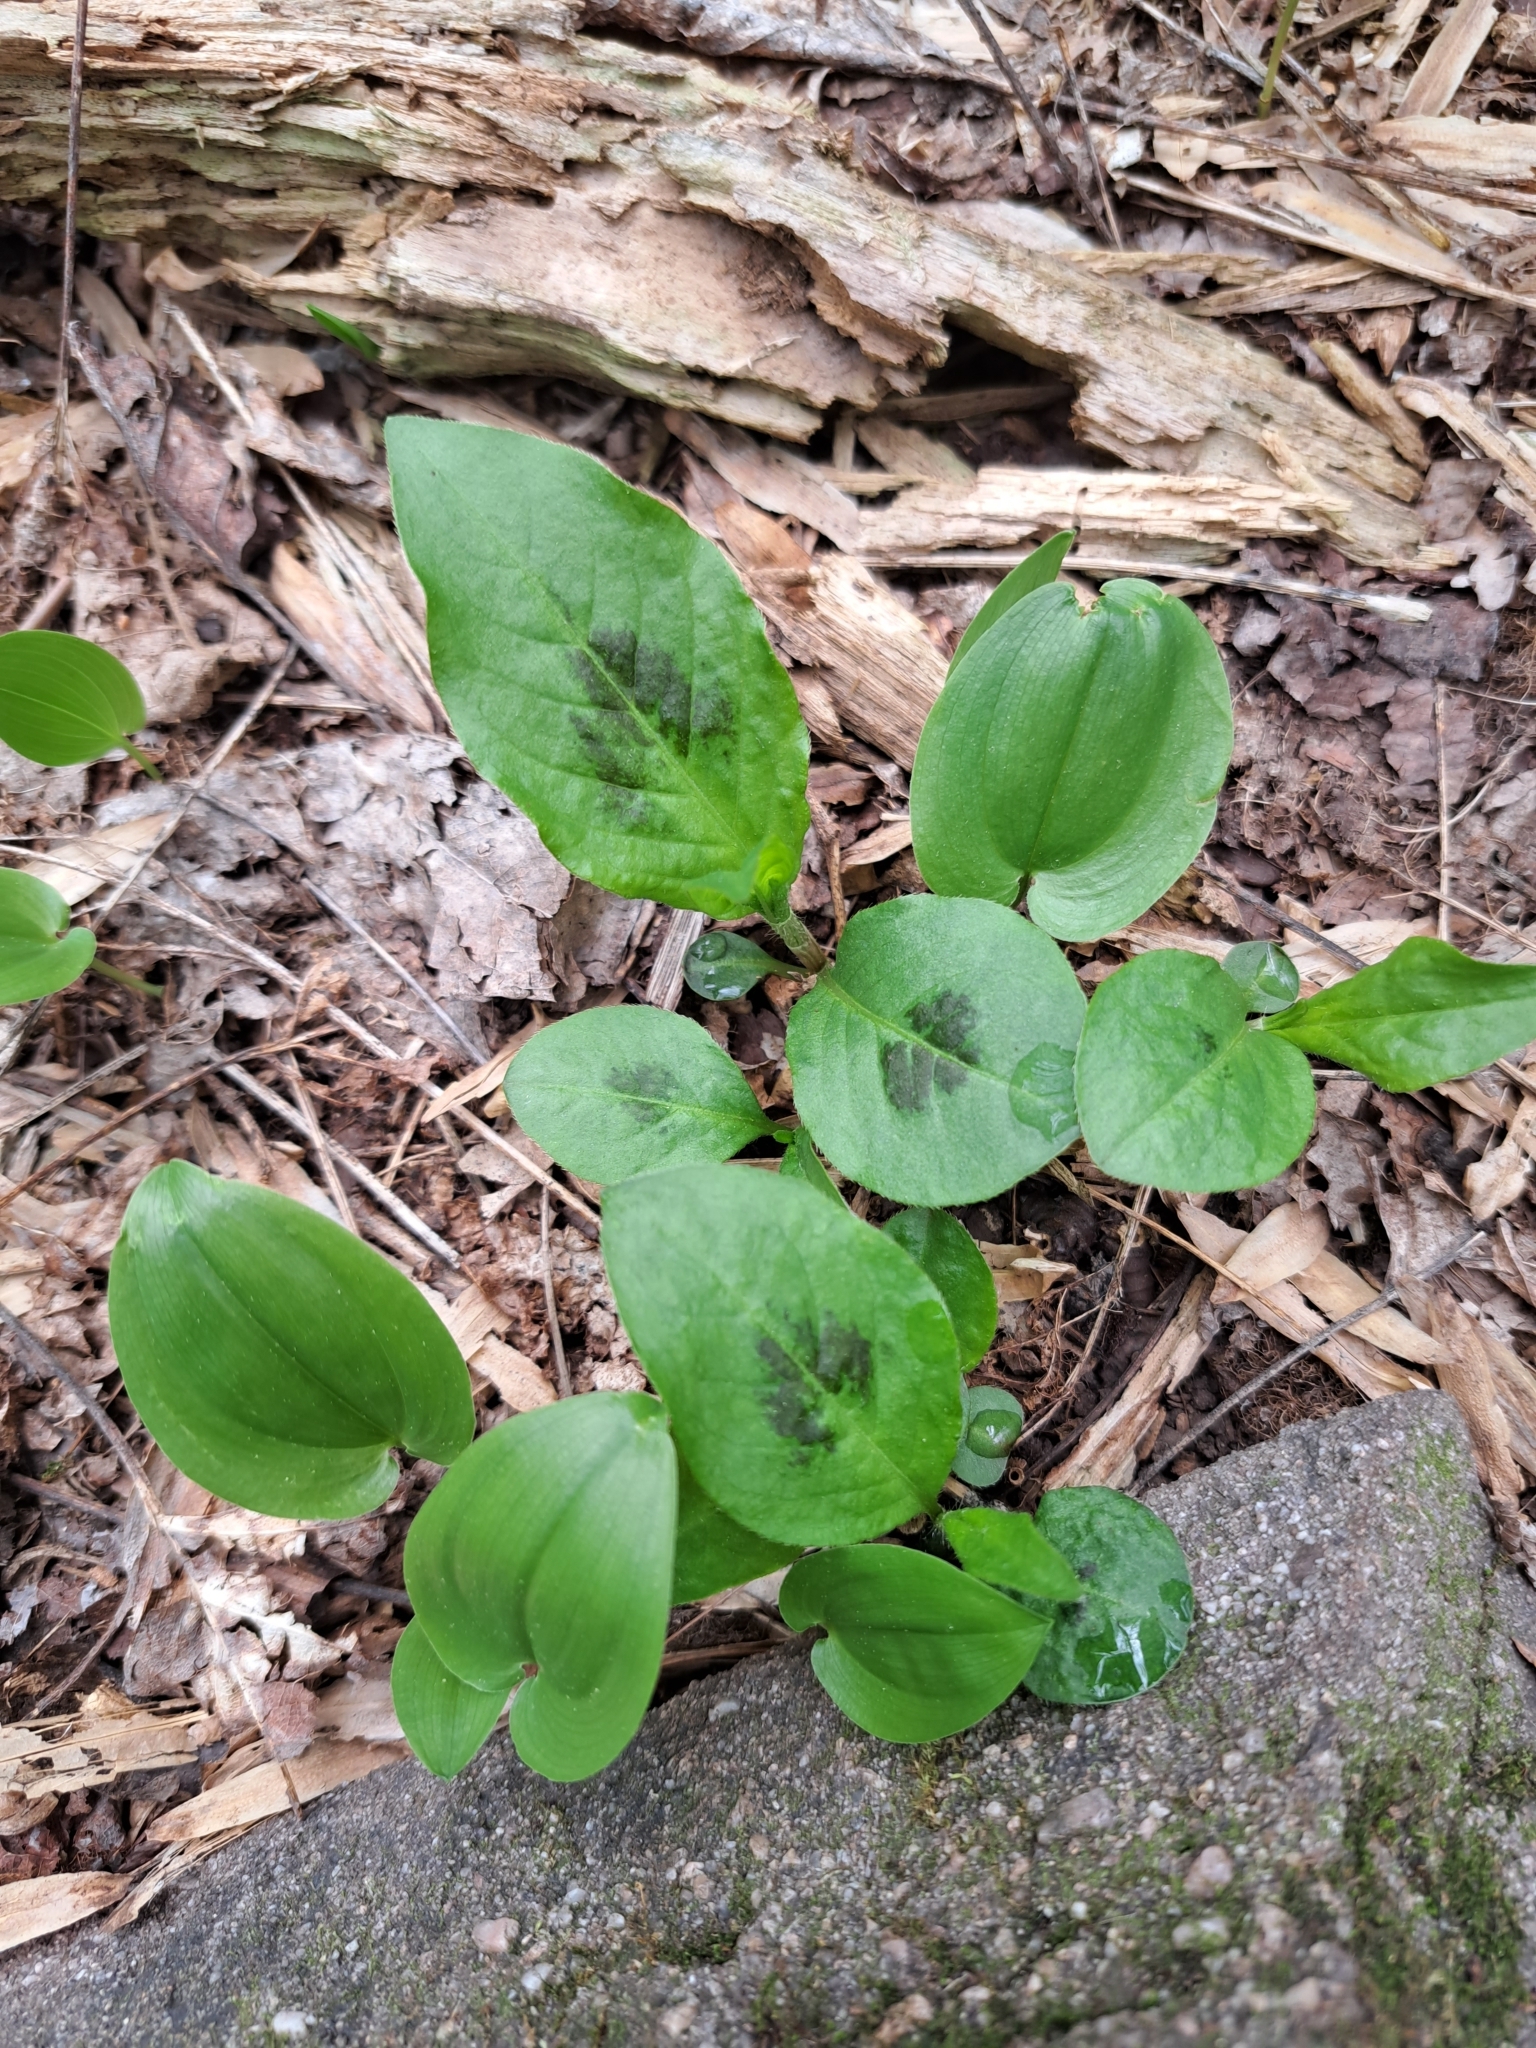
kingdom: Plantae
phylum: Tracheophyta
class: Magnoliopsida
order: Caryophyllales
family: Polygonaceae
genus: Persicaria
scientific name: Persicaria virginiana
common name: Jumpseed
